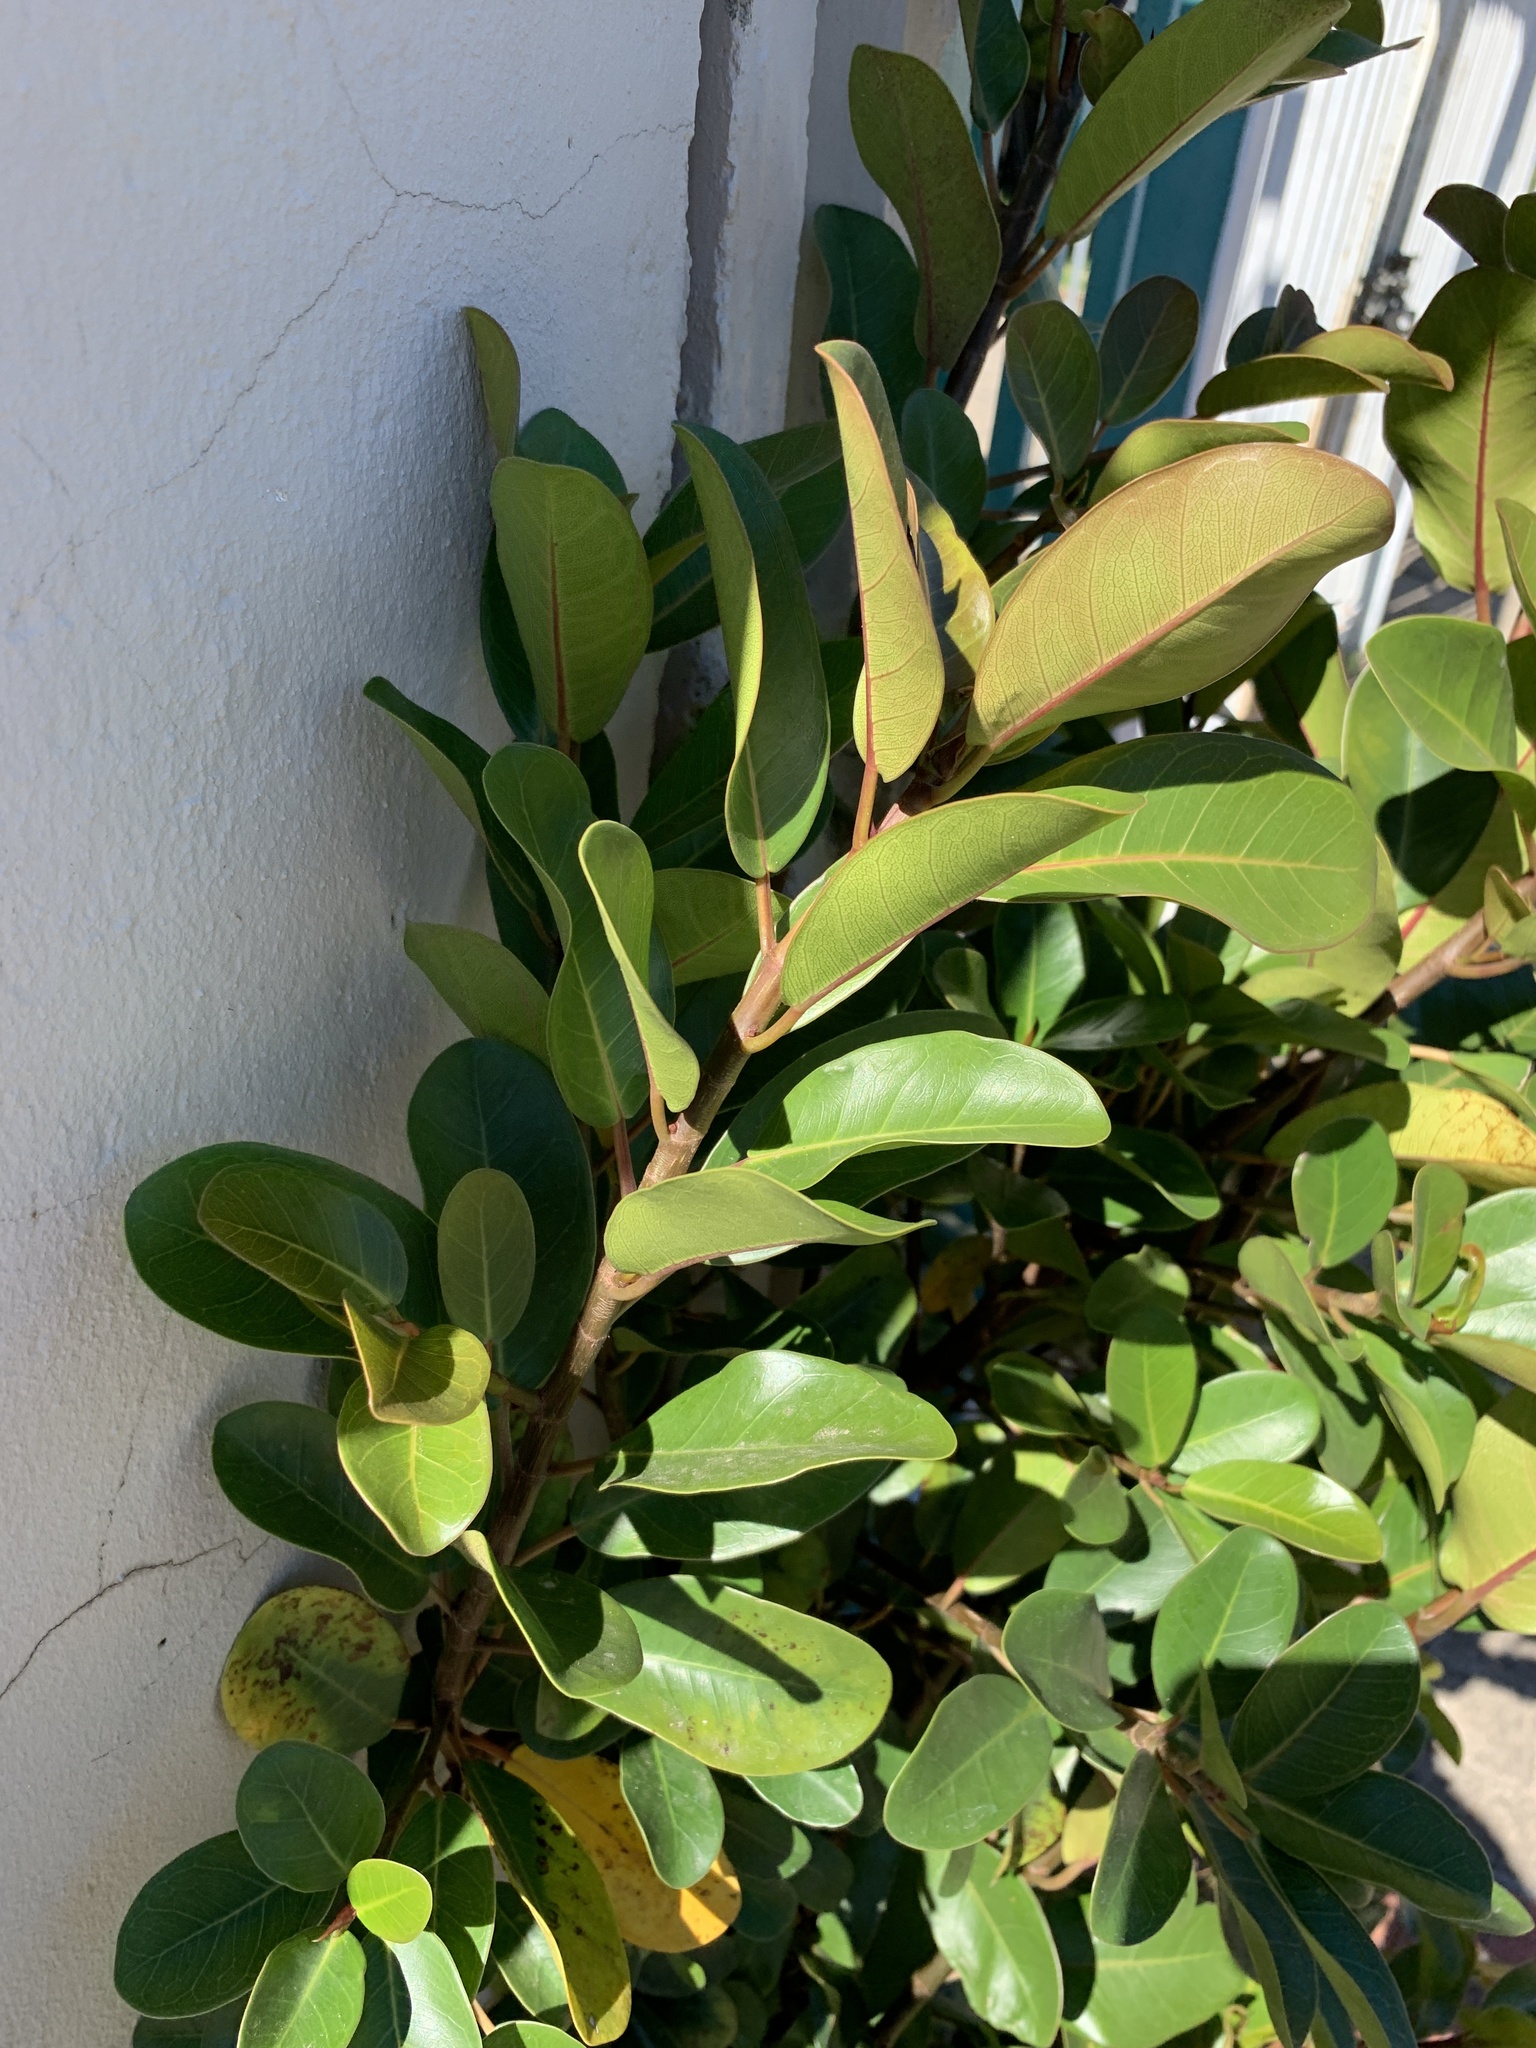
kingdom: Plantae
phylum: Tracheophyta
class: Magnoliopsida
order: Rosales
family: Moraceae
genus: Ficus
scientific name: Ficus thonningii
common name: Fig
